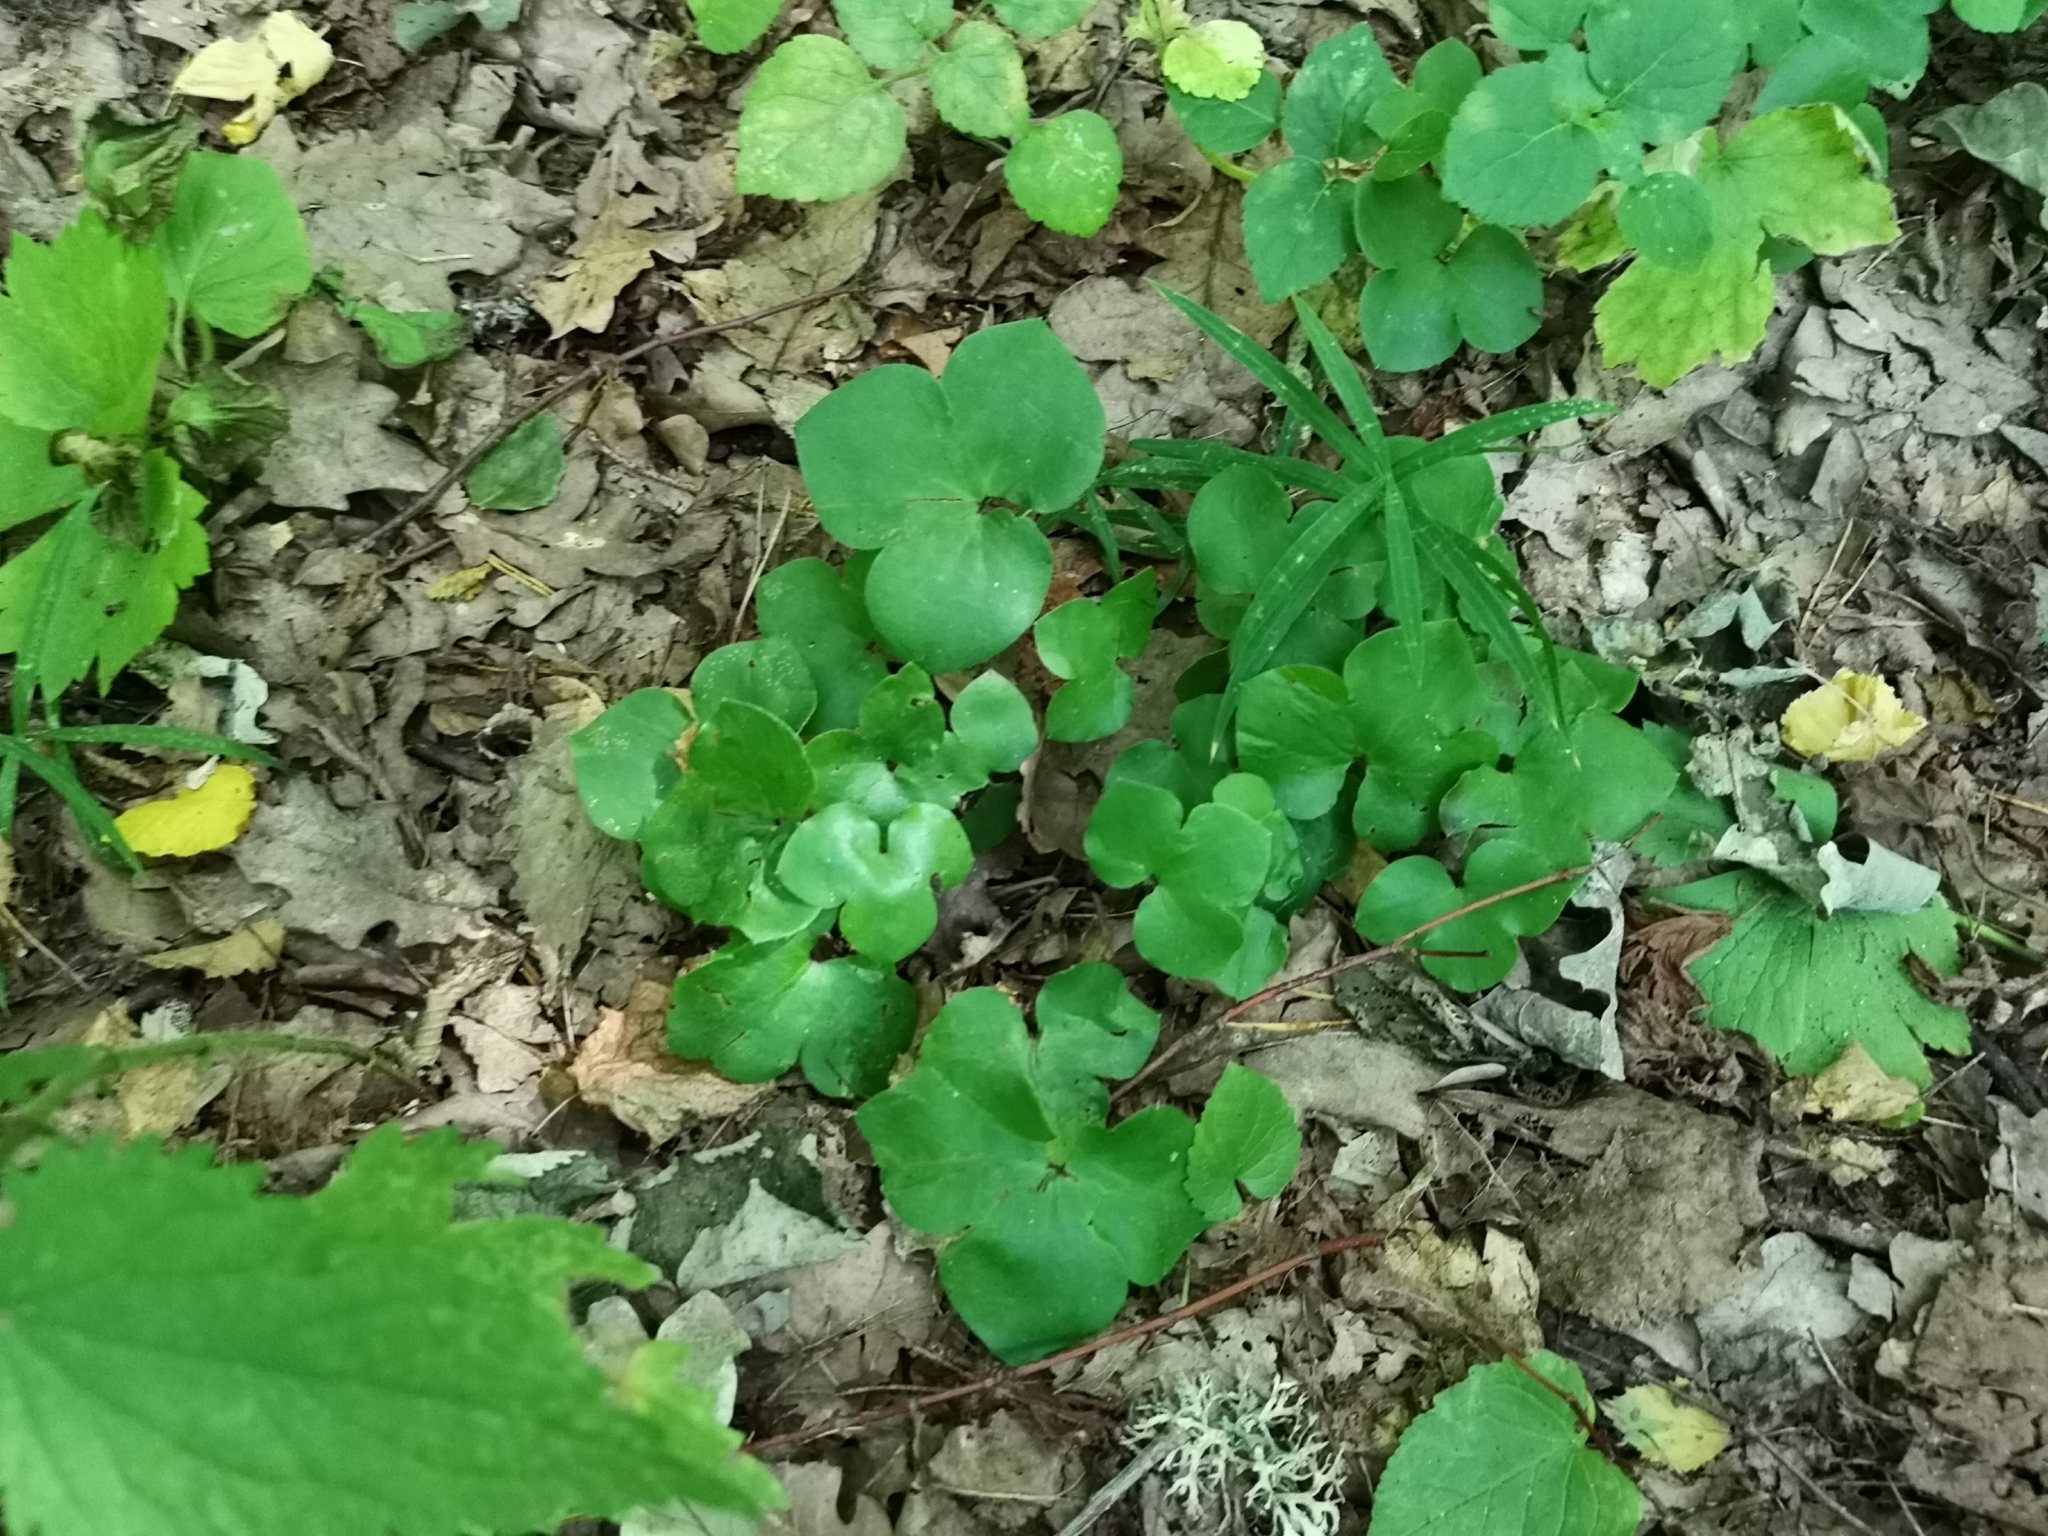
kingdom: Plantae
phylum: Tracheophyta
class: Magnoliopsida
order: Ranunculales
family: Ranunculaceae
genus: Hepatica
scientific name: Hepatica nobilis
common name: Liverleaf
